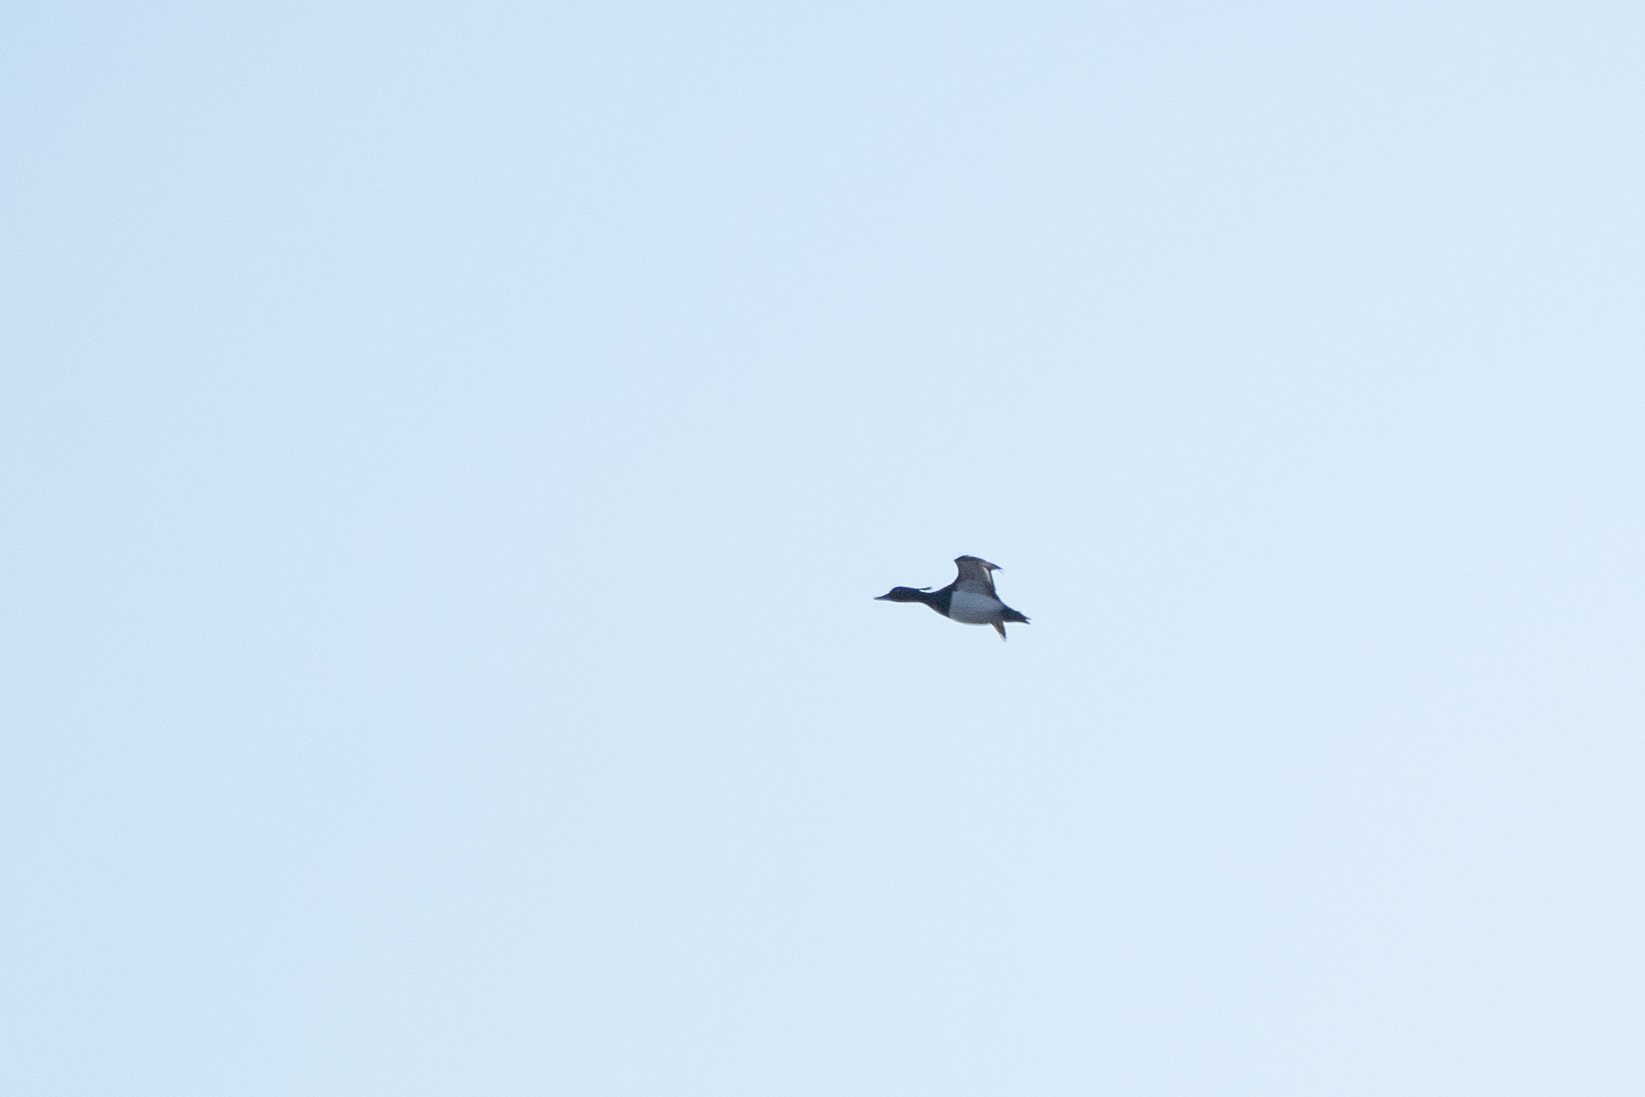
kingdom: Animalia
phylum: Chordata
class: Aves
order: Anseriformes
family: Anatidae
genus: Aythya
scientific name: Aythya fuligula
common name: Tufted duck
